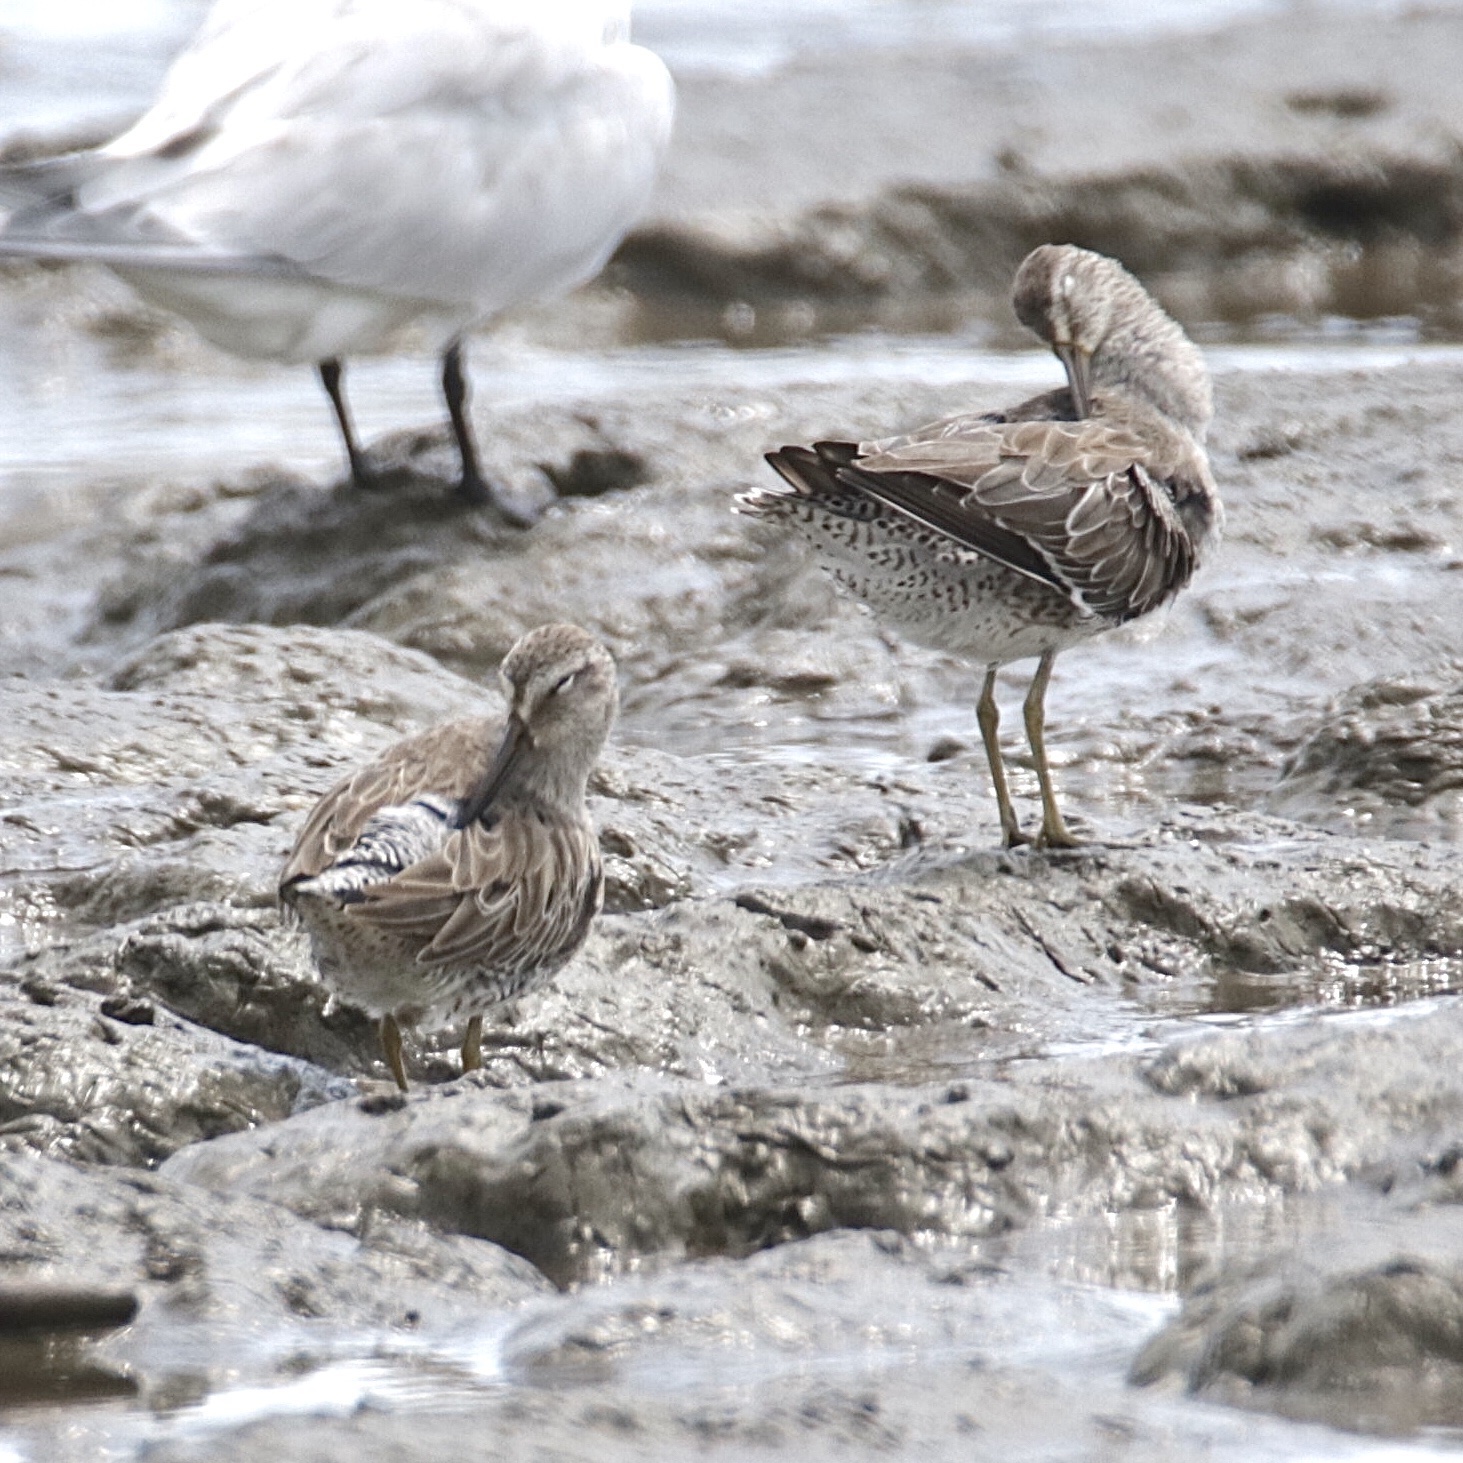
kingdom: Animalia
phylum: Chordata
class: Aves
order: Charadriiformes
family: Scolopacidae
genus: Limnodromus
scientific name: Limnodromus griseus
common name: Short-billed dowitcher
